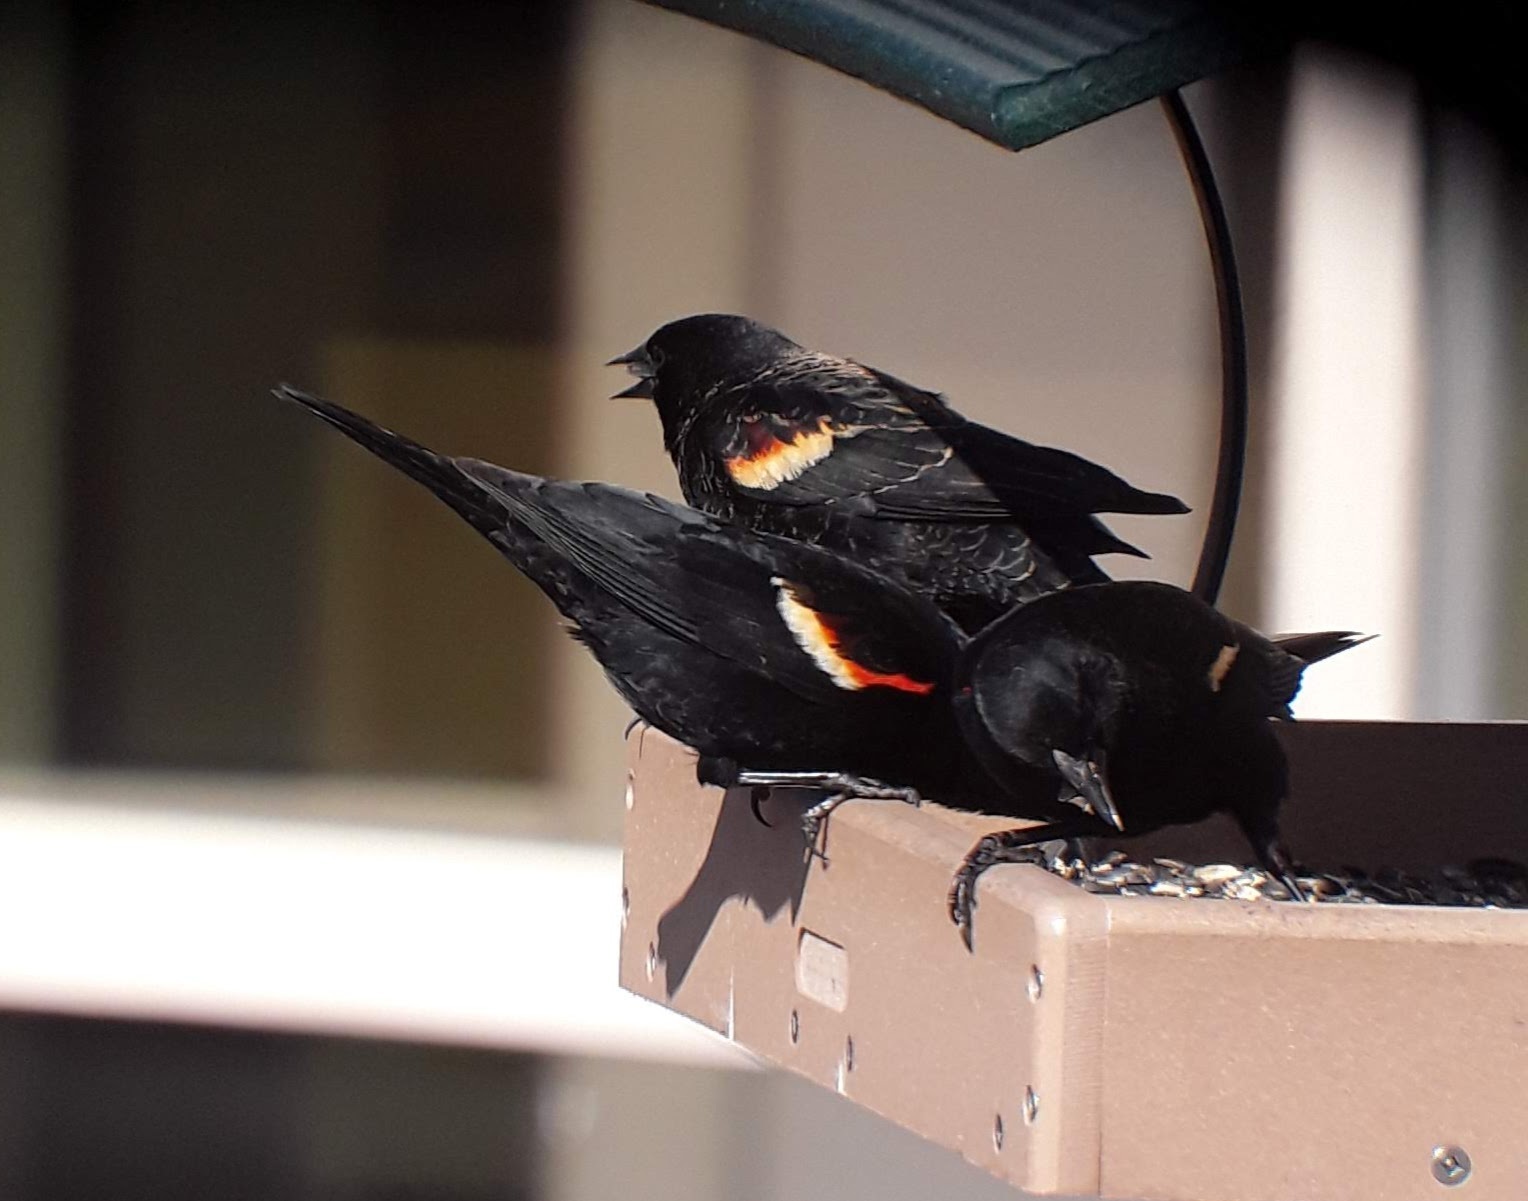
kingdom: Animalia
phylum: Chordata
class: Aves
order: Passeriformes
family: Icteridae
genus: Agelaius
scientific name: Agelaius phoeniceus
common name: Red-winged blackbird
